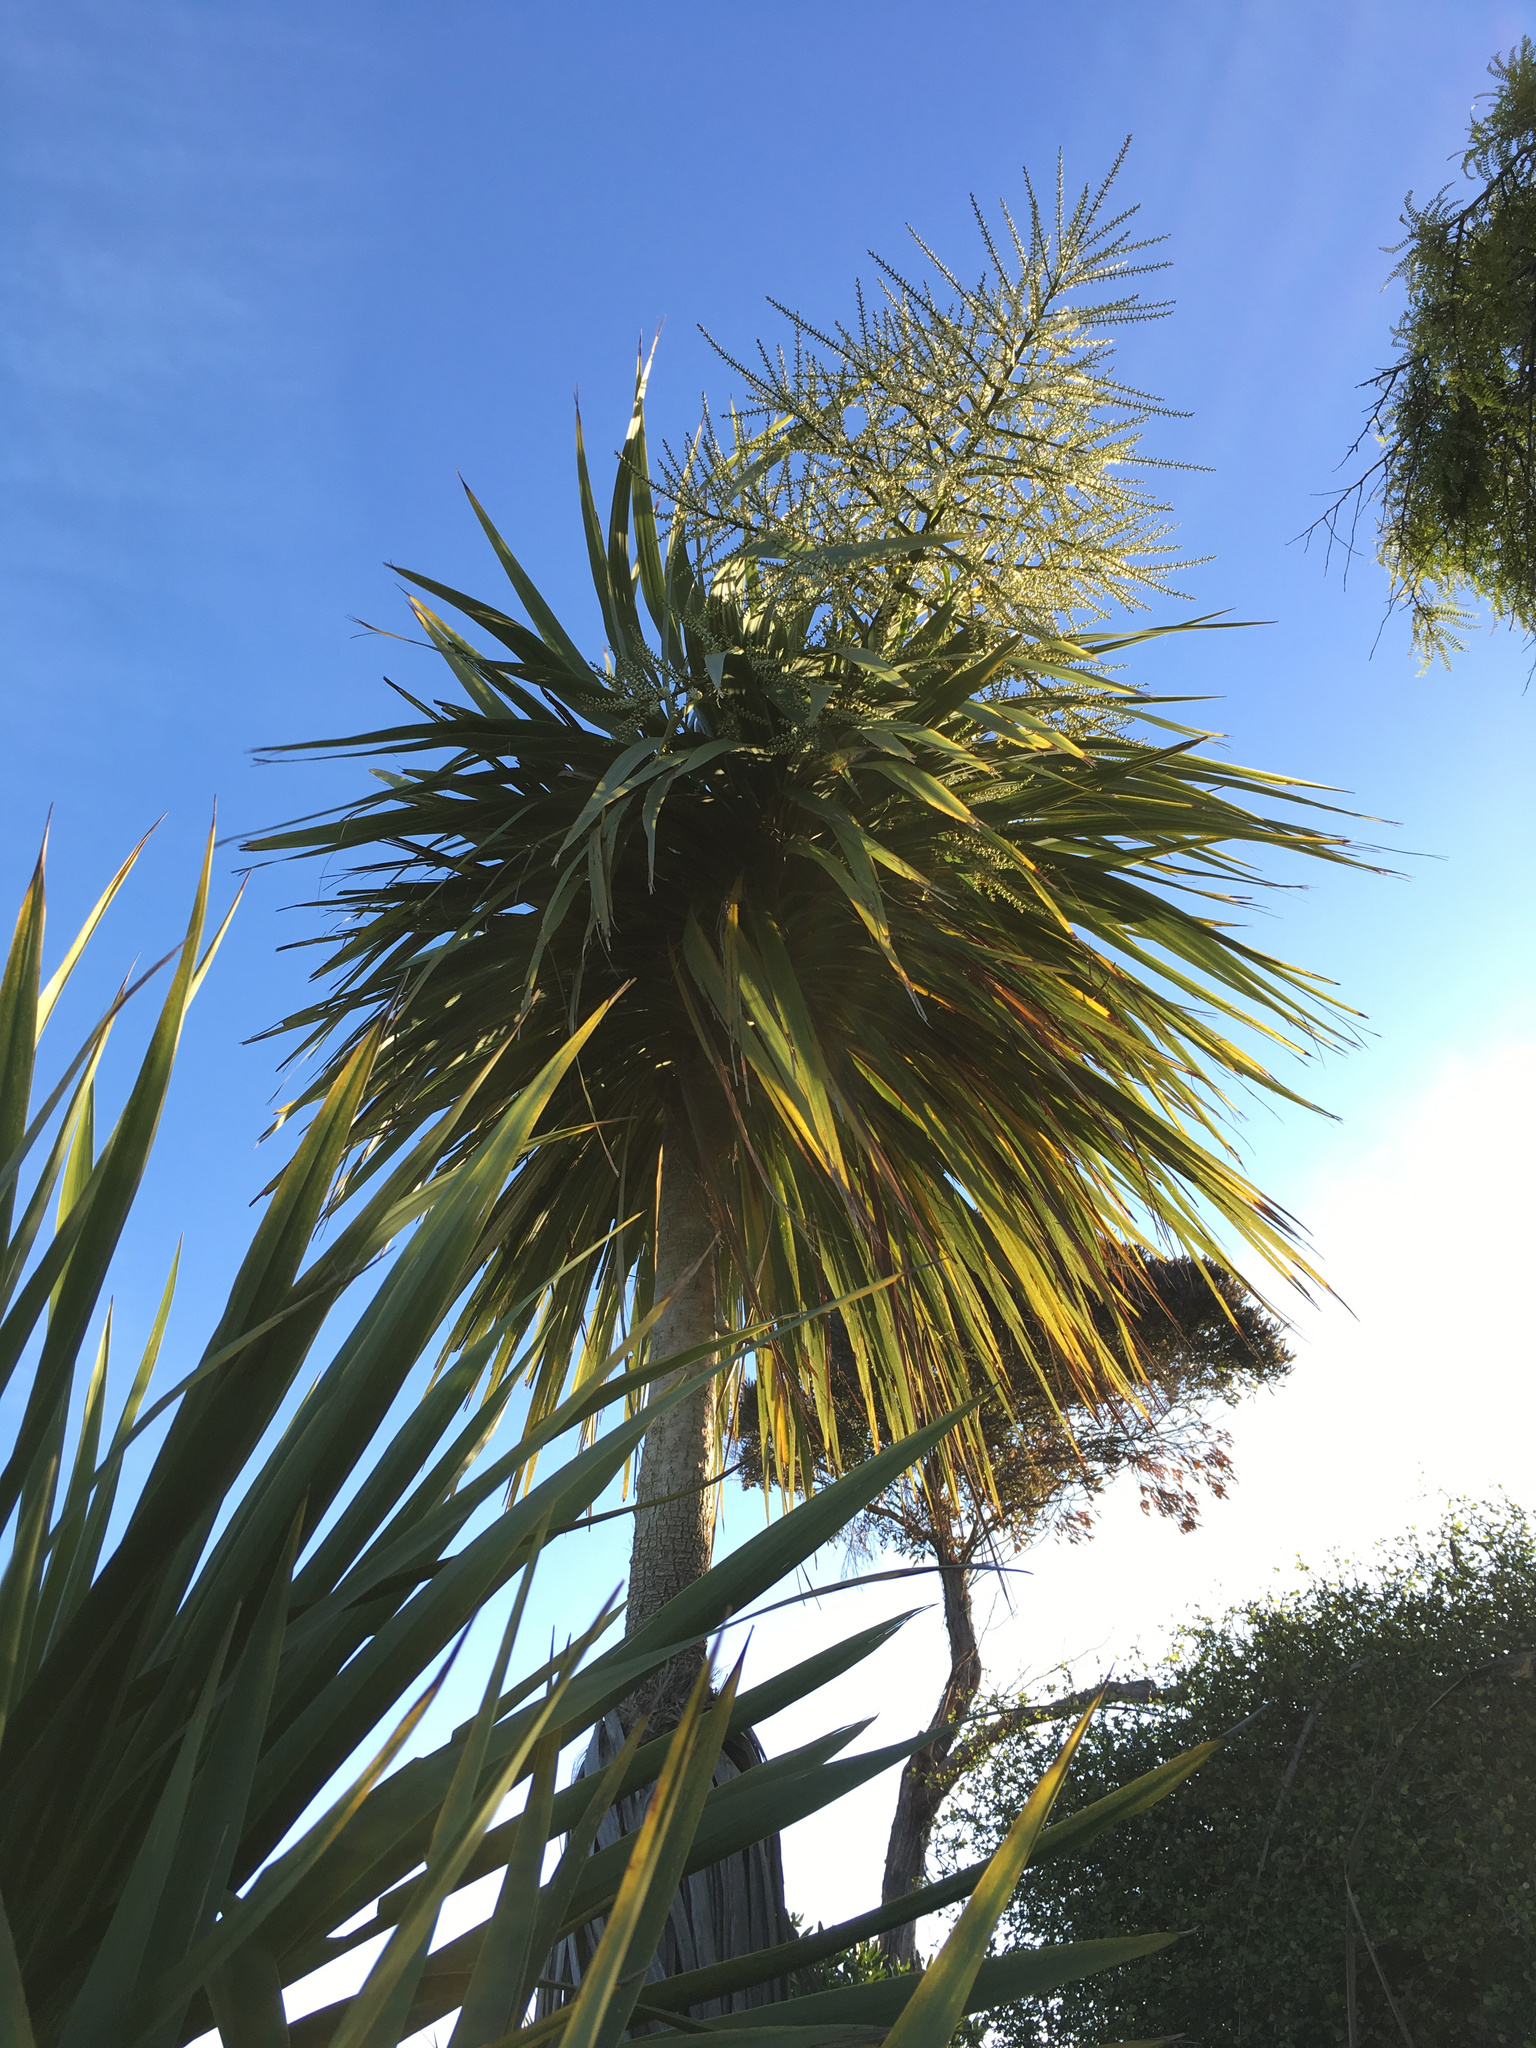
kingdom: Plantae
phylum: Tracheophyta
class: Liliopsida
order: Asparagales
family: Asparagaceae
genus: Cordyline
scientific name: Cordyline australis
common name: Cabbage-palm
